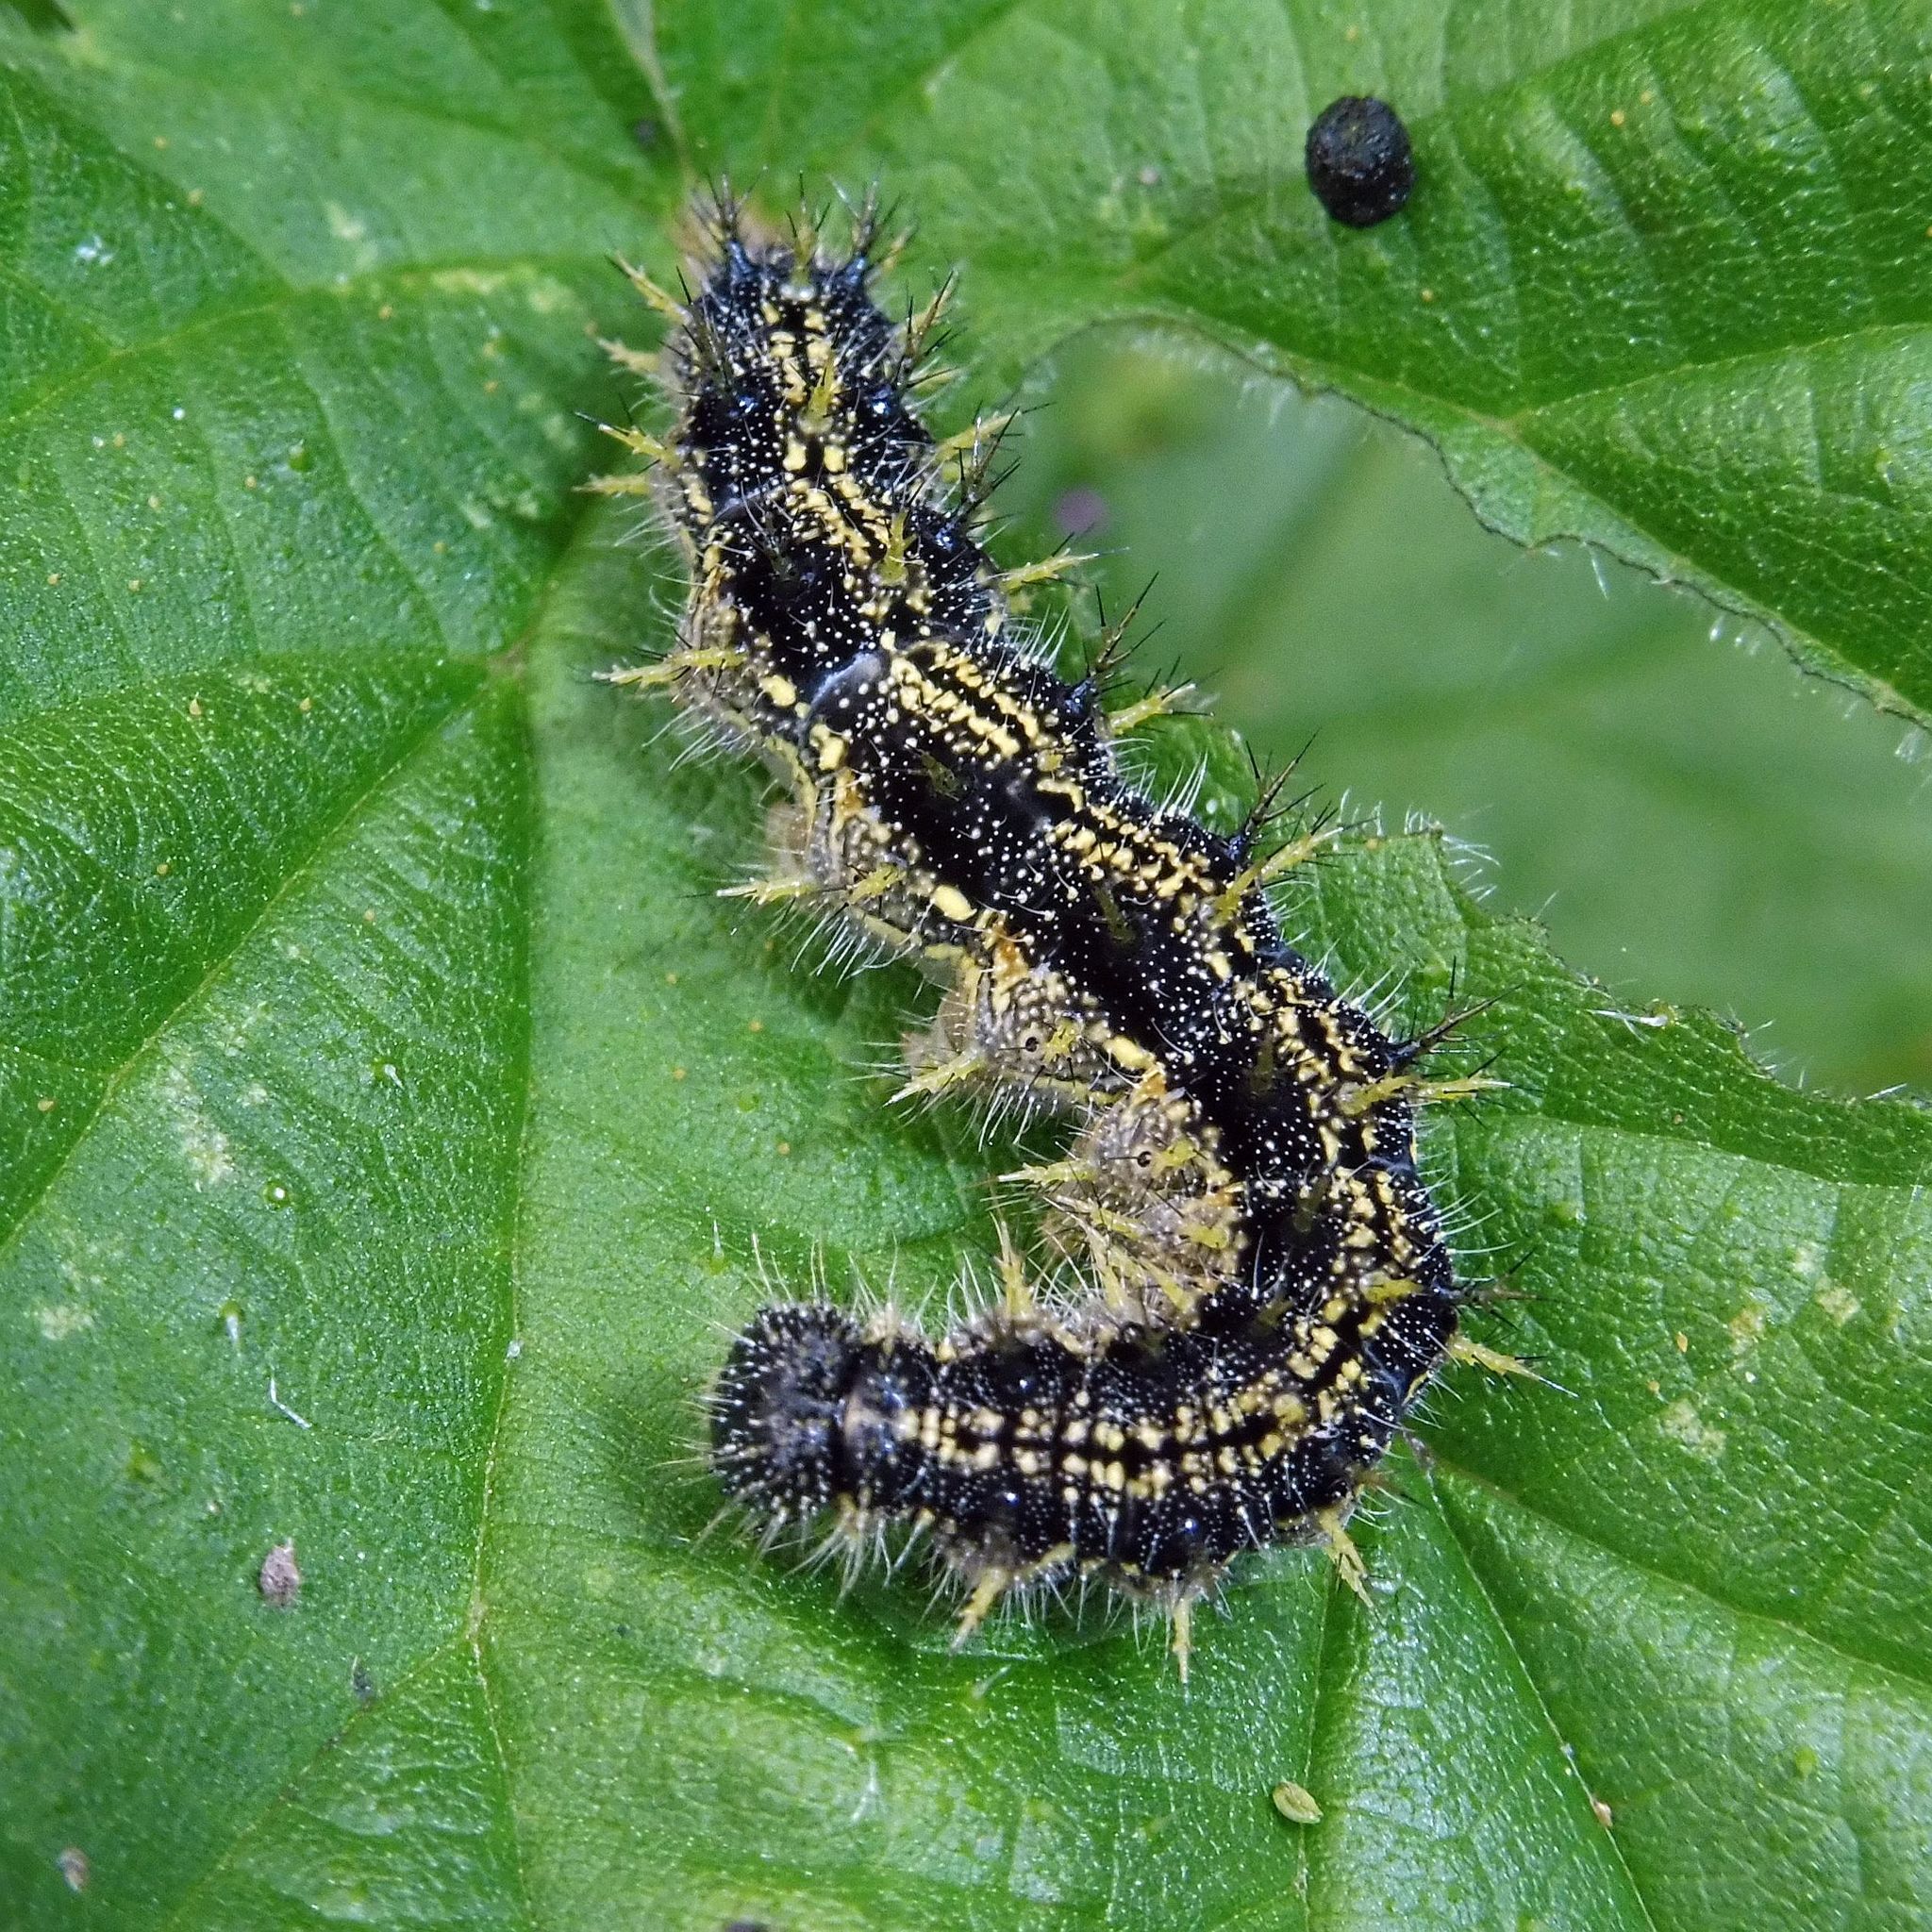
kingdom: Animalia
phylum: Arthropoda
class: Insecta
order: Lepidoptera
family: Nymphalidae
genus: Aglais
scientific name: Aglais urticae
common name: Small tortoiseshell
